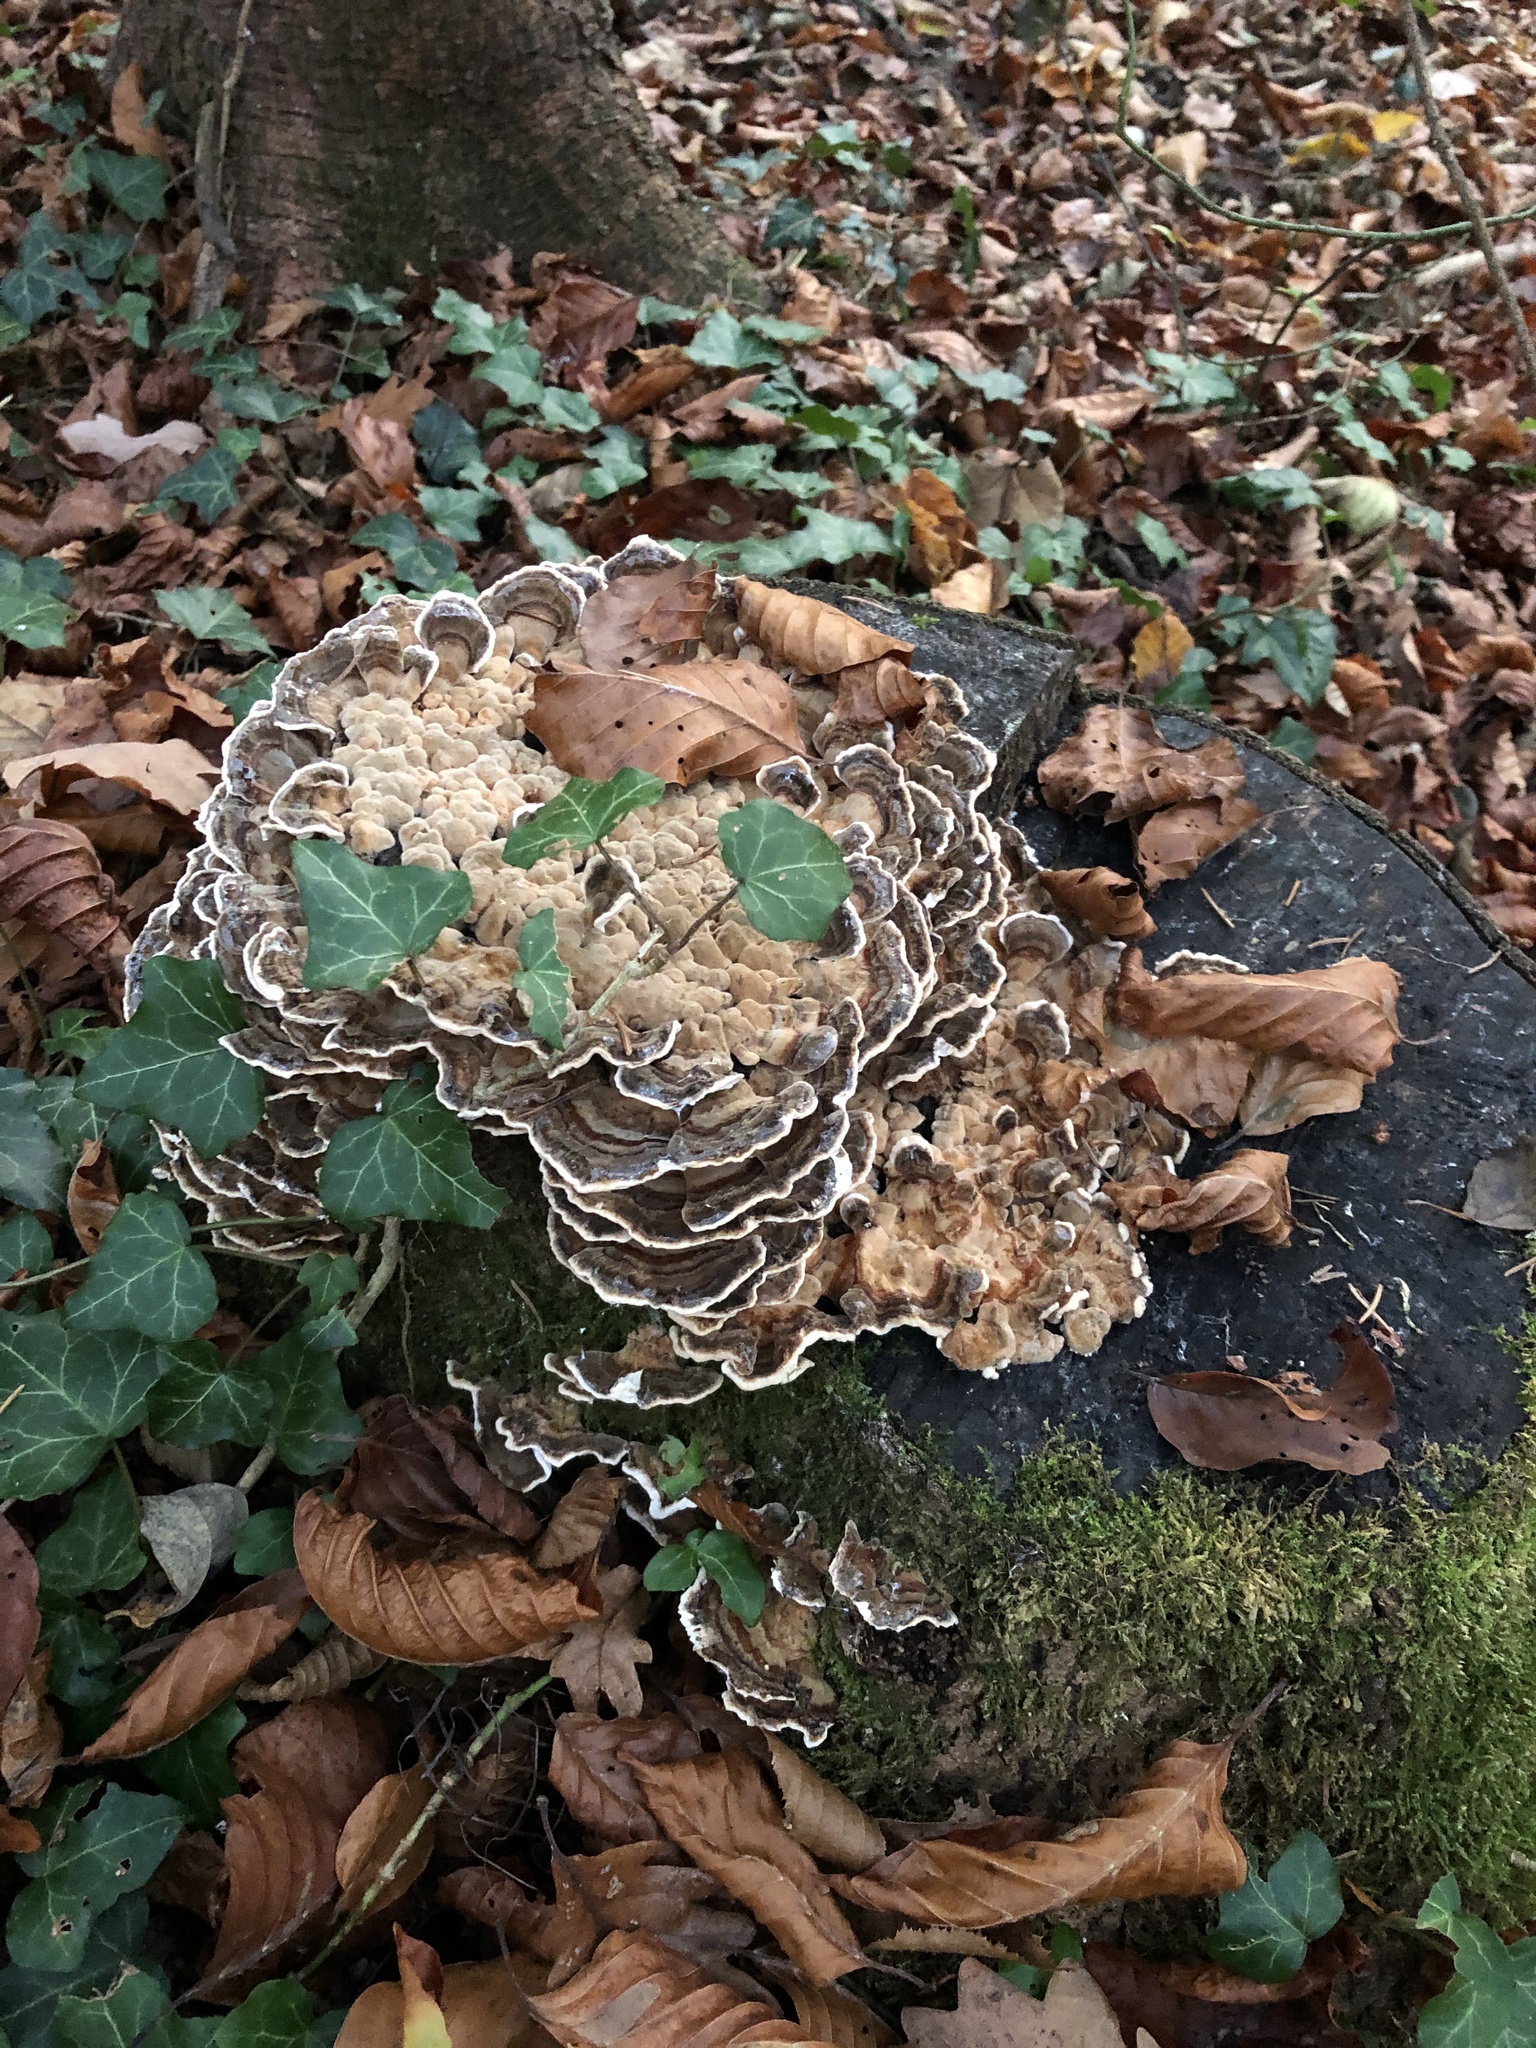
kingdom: Fungi
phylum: Basidiomycota
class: Agaricomycetes
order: Polyporales
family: Polyporaceae
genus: Trametes
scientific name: Trametes versicolor
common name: Turkeytail
